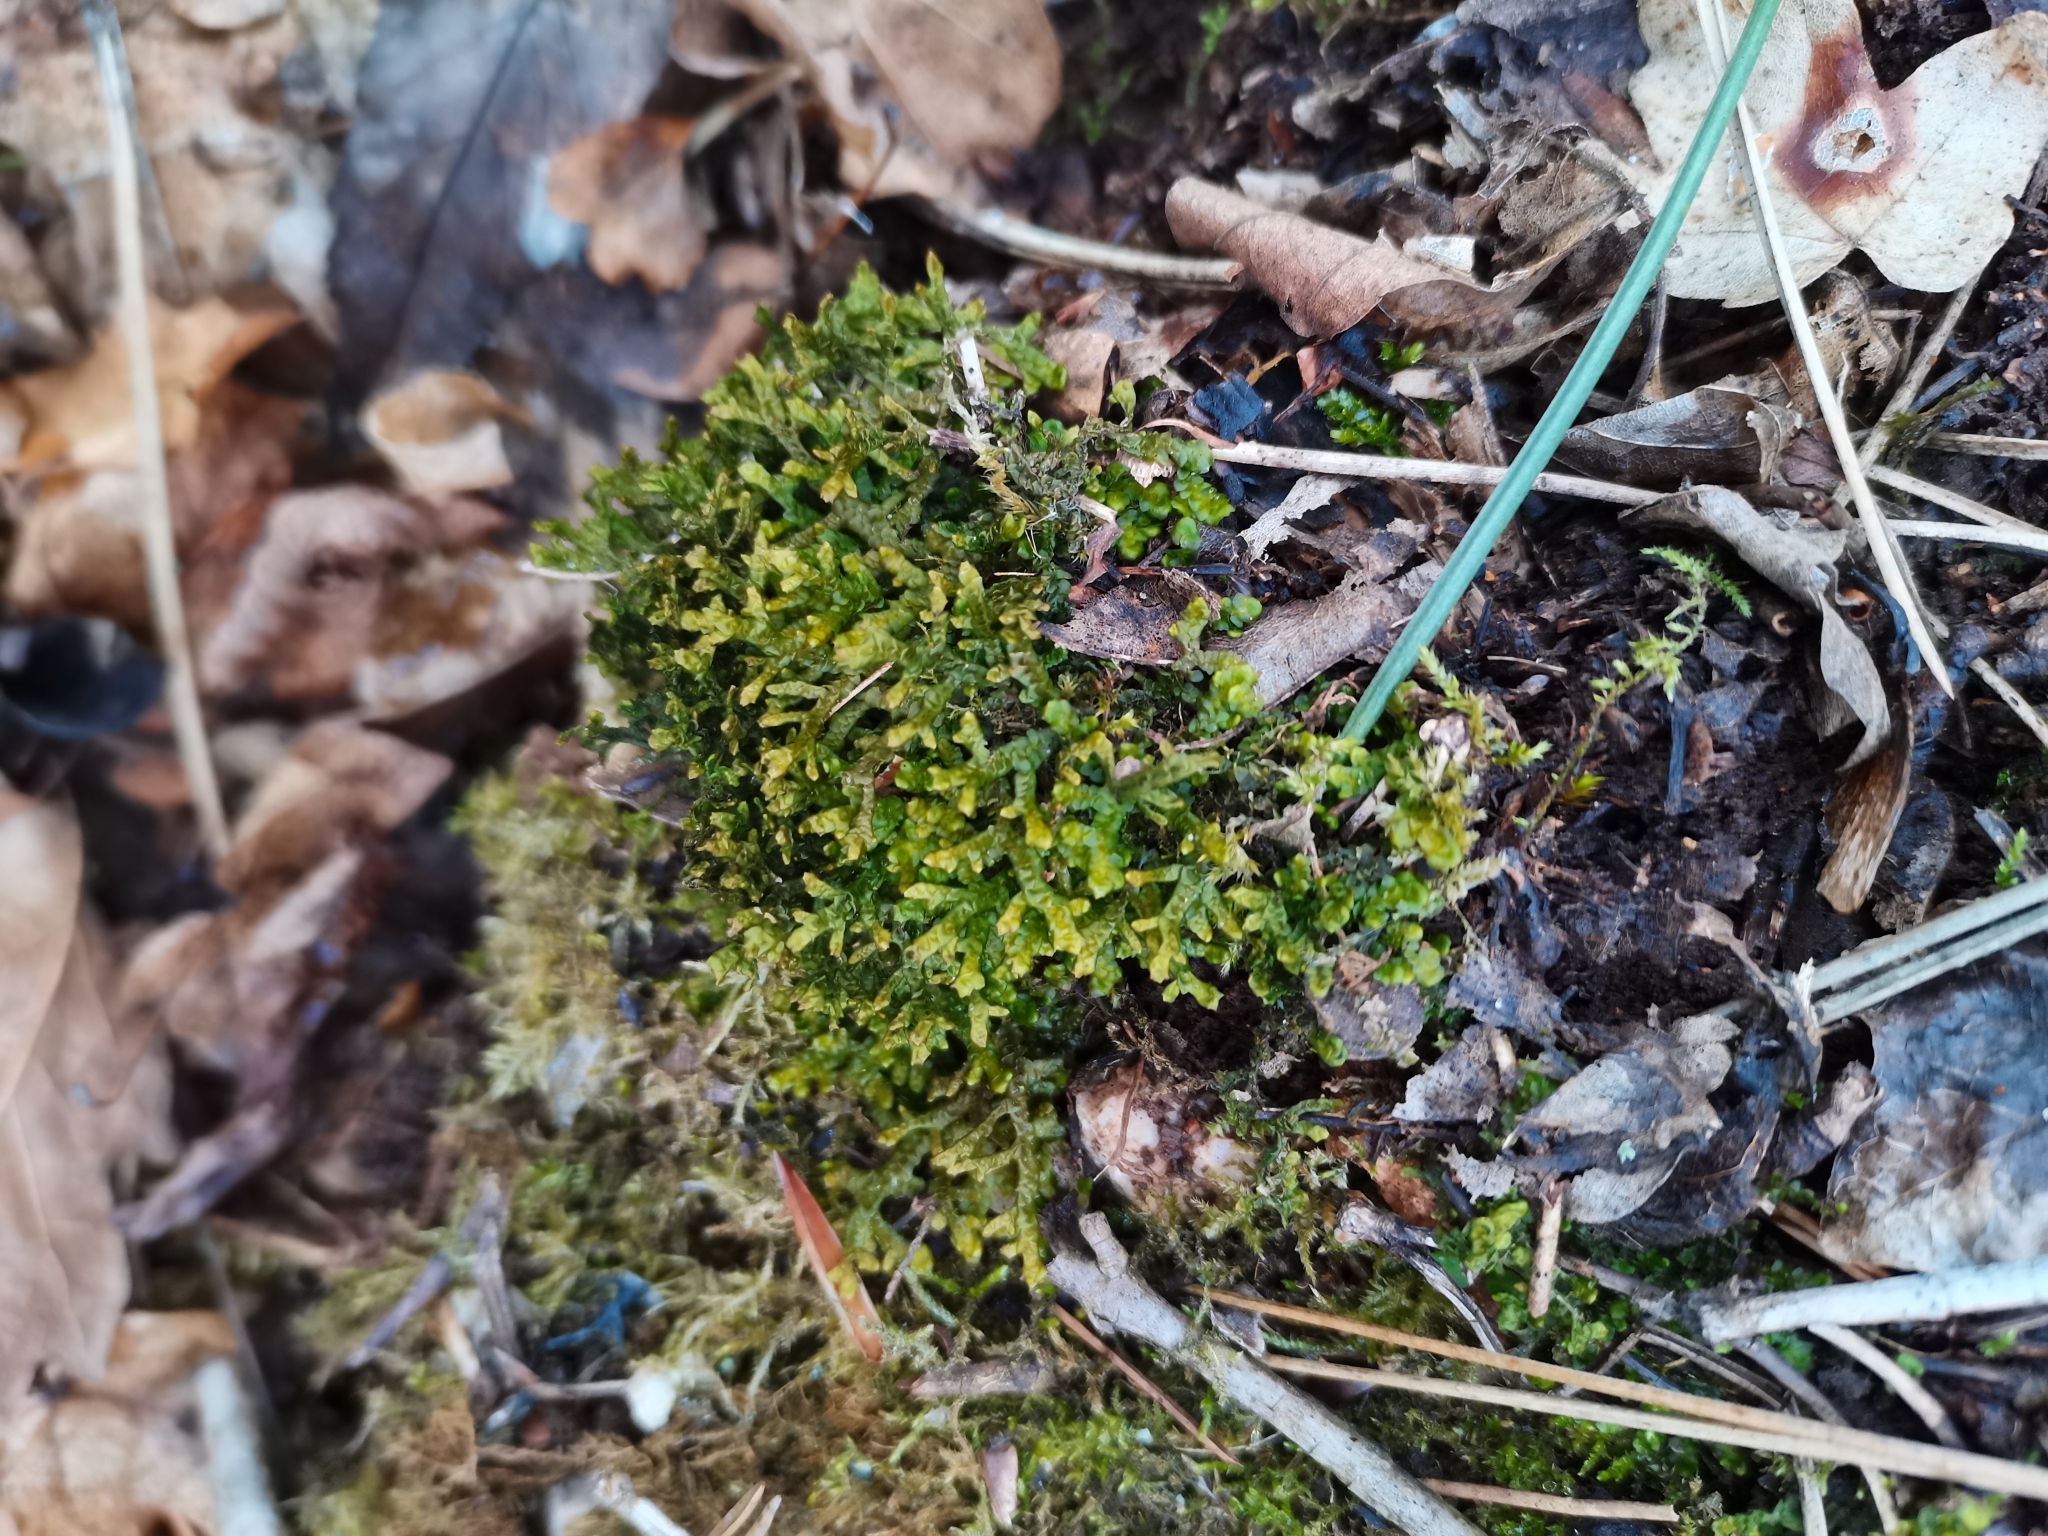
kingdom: Plantae
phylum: Marchantiophyta
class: Jungermanniopsida
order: Porellales
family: Porellaceae
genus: Porella
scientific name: Porella platyphylla
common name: Wall scalewort
